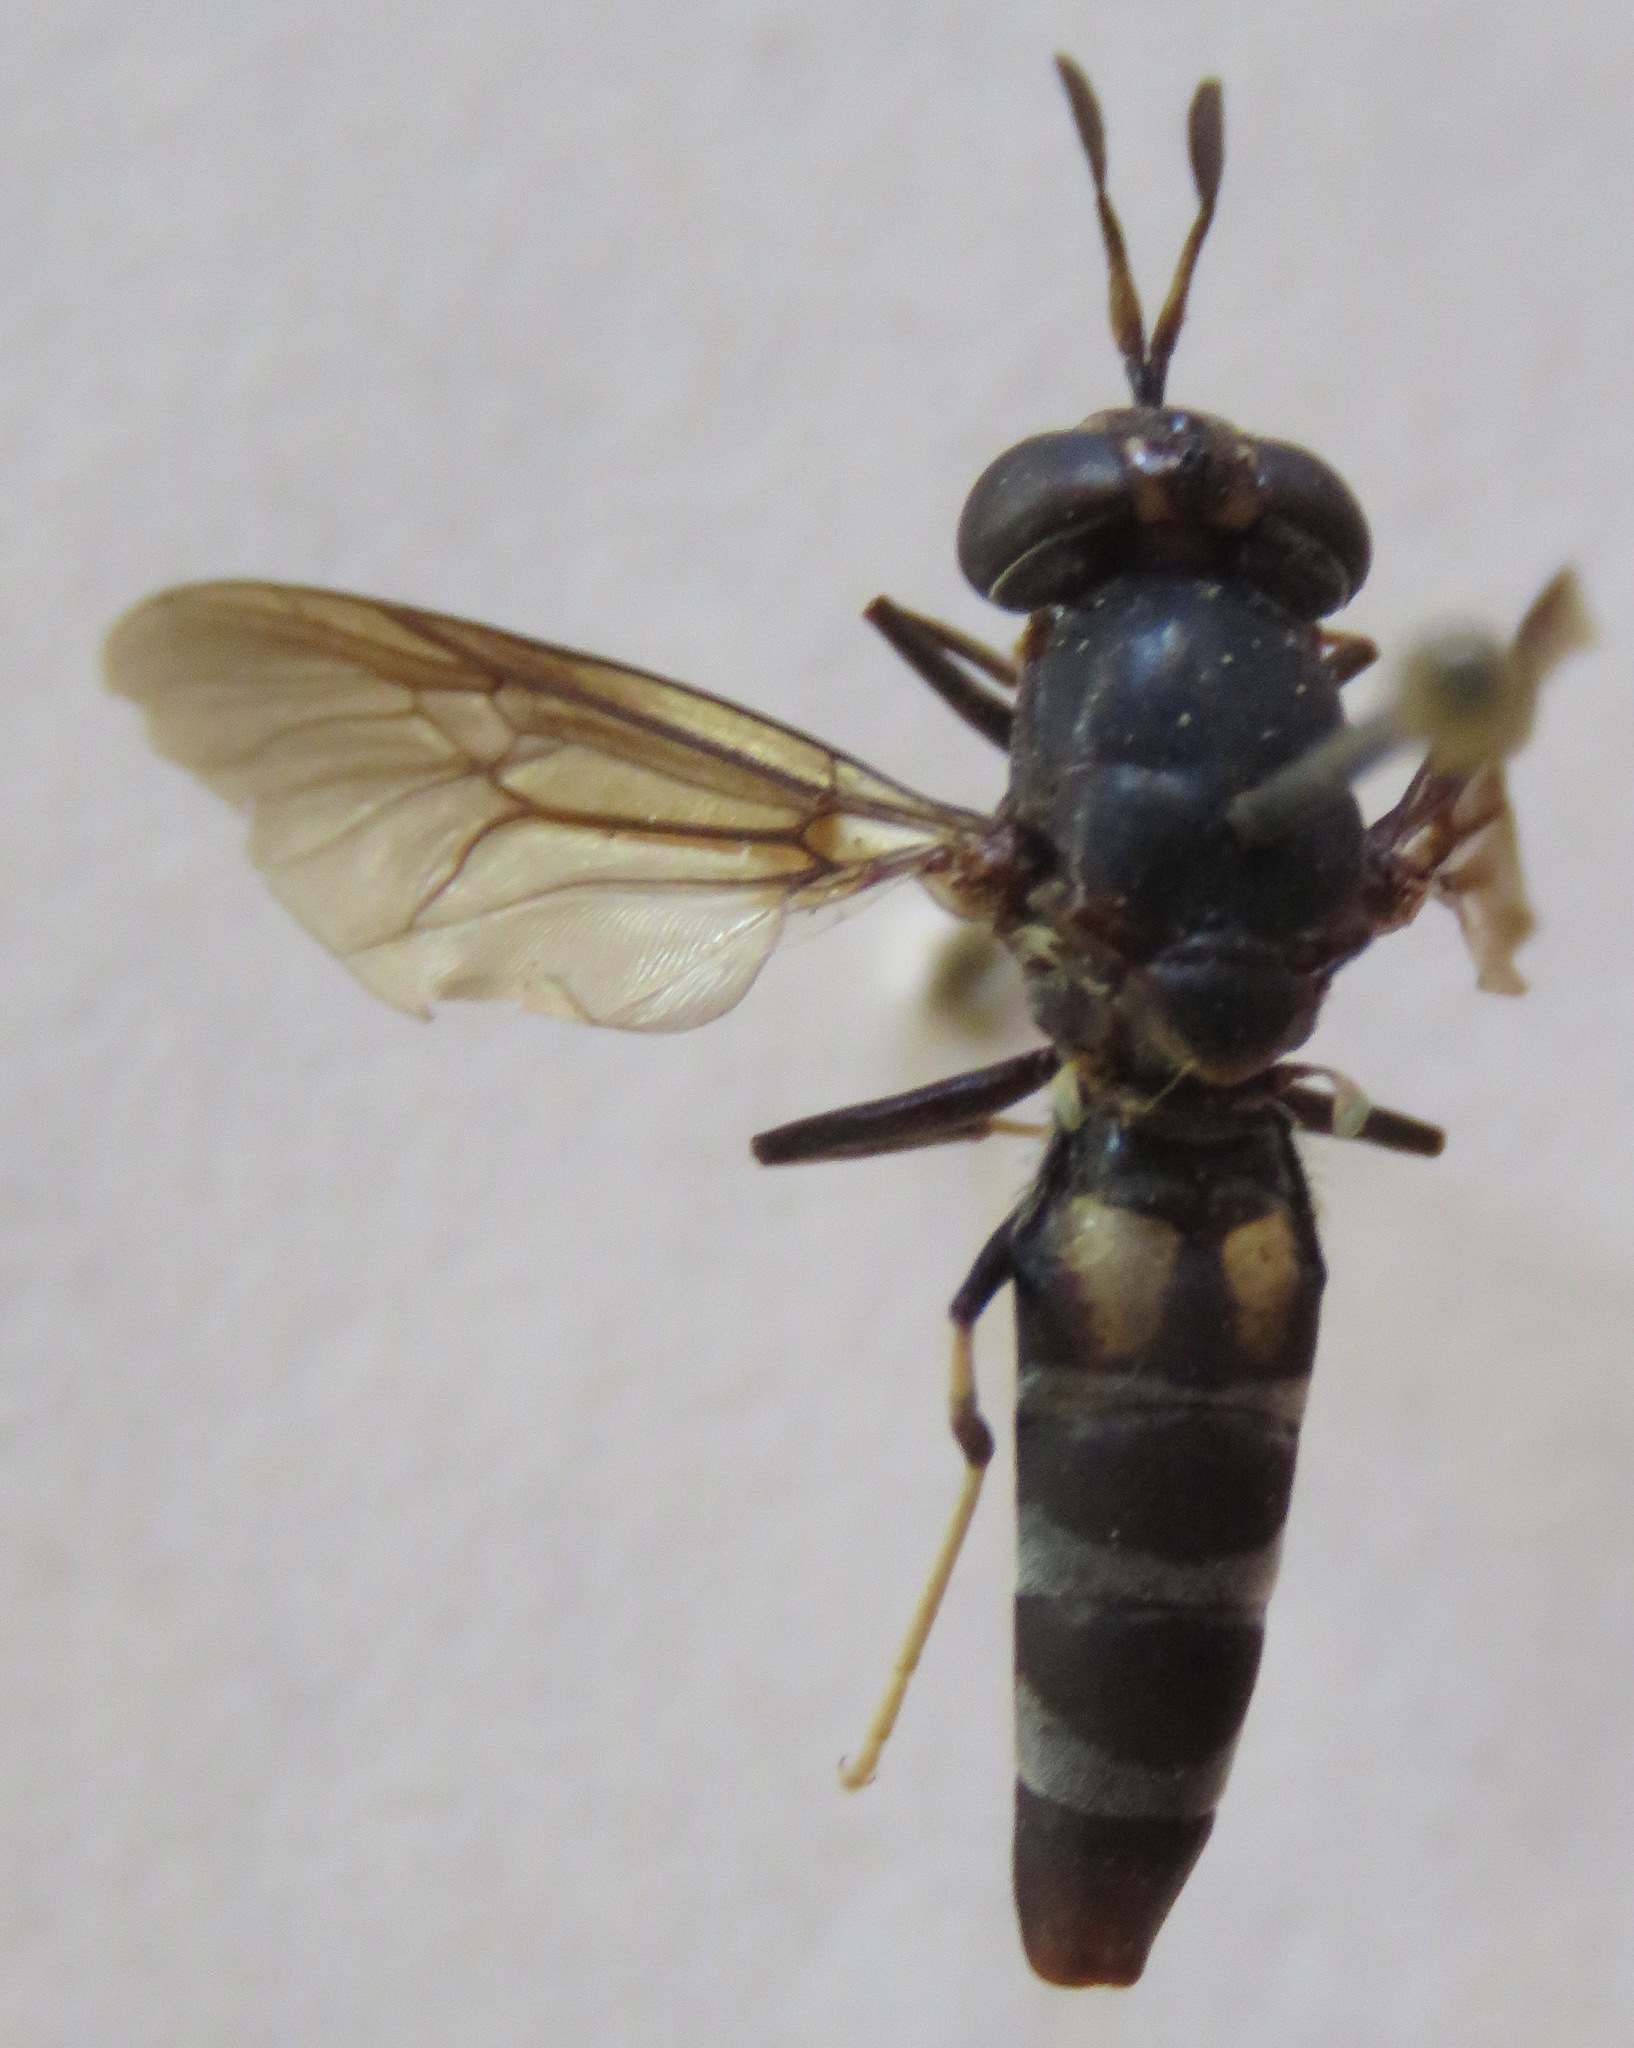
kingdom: Animalia
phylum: Arthropoda
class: Insecta
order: Diptera
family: Stratiomyidae
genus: Hermetia
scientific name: Hermetia illucens
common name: Black soldier fly
